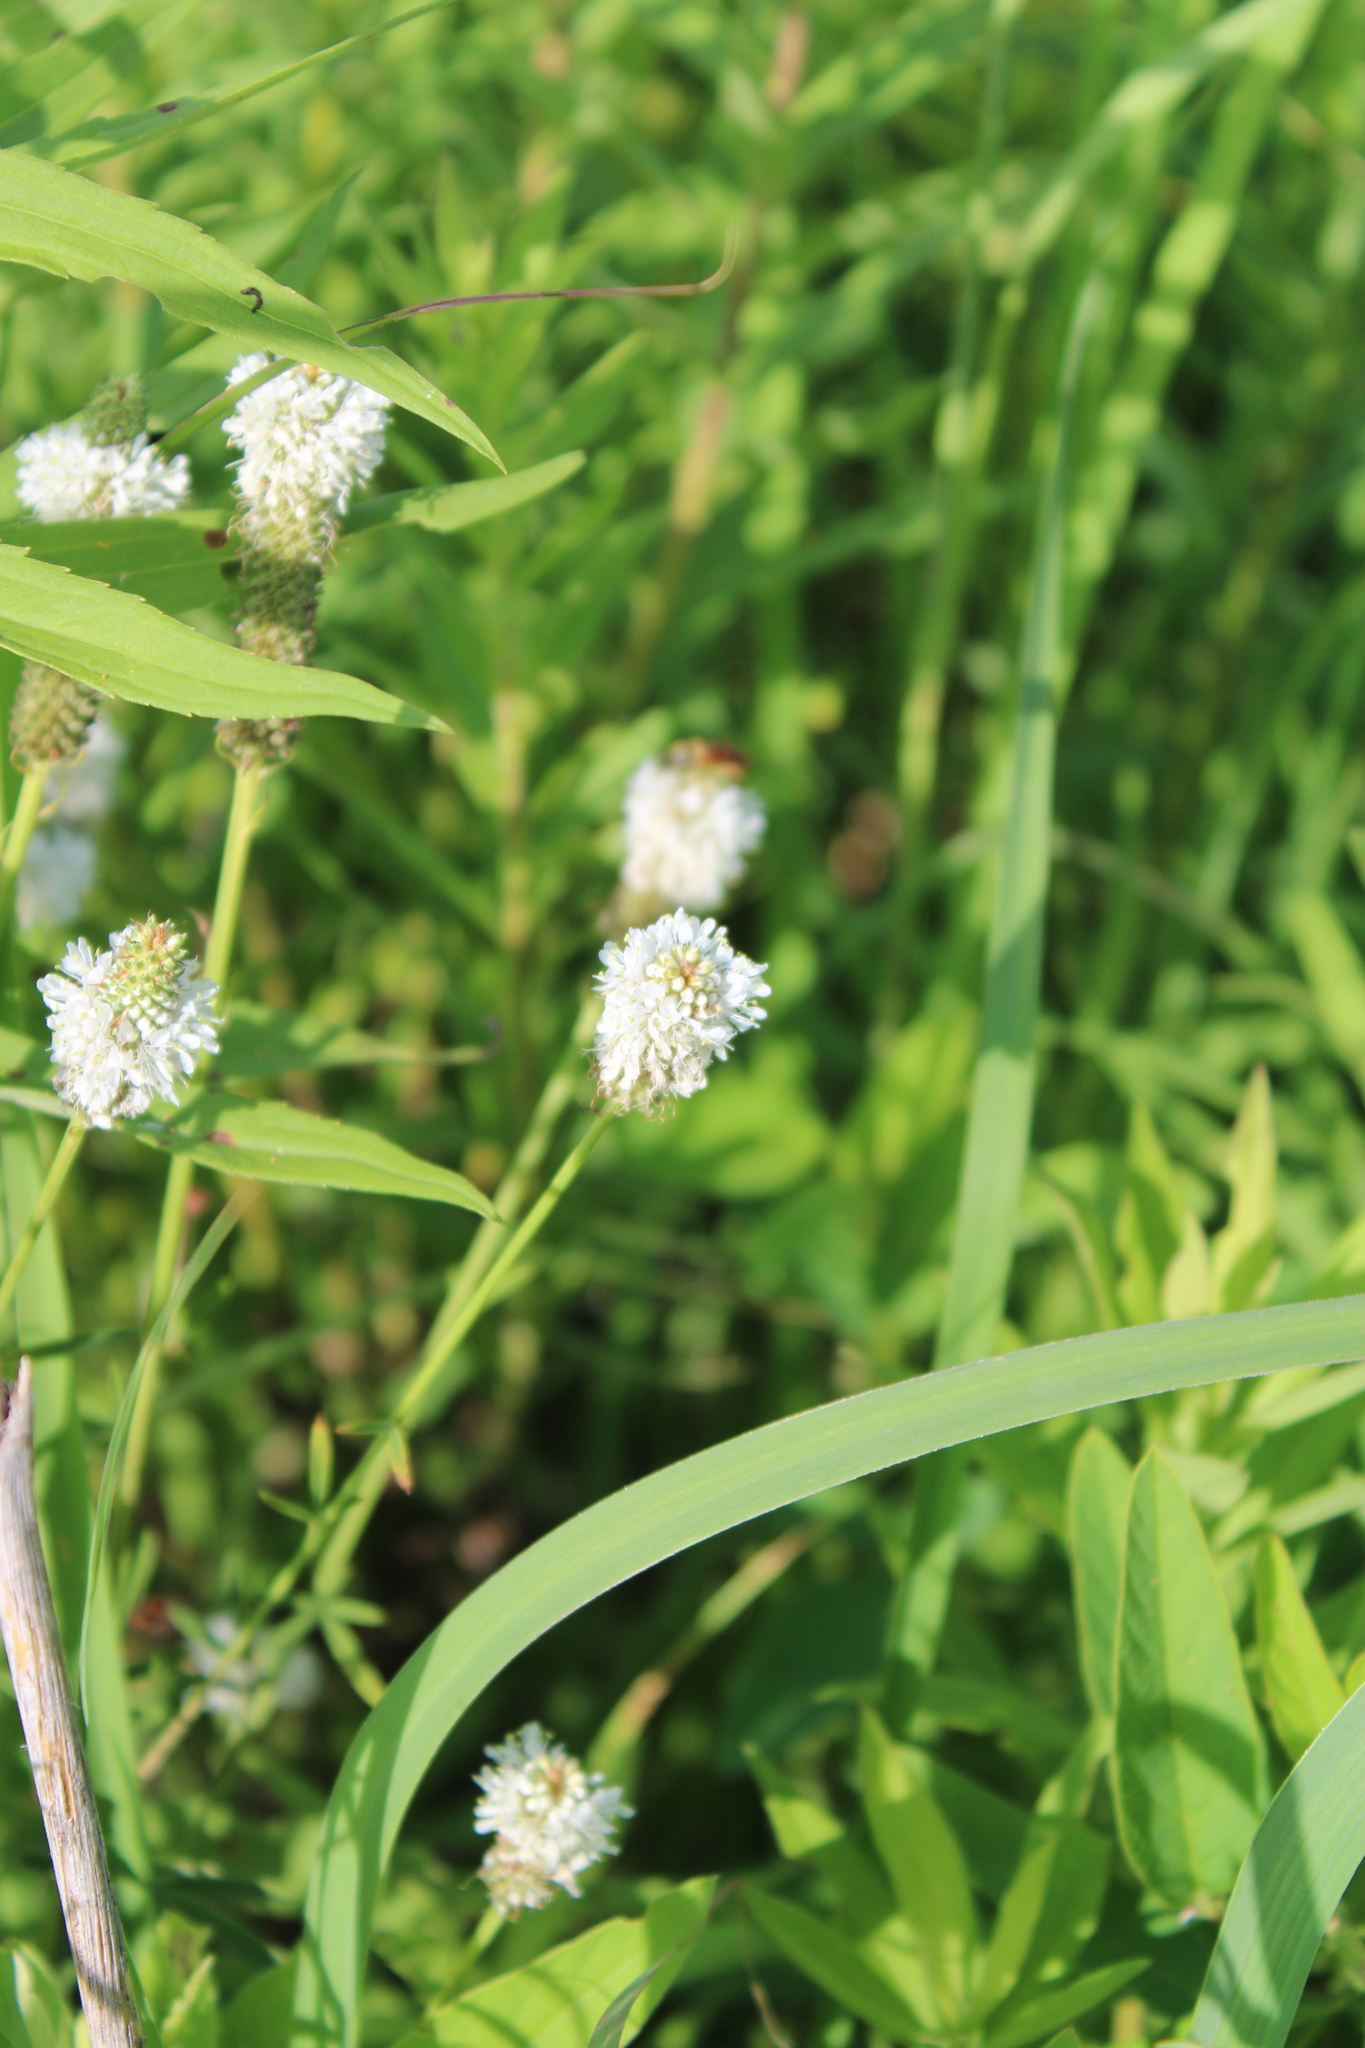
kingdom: Plantae
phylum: Tracheophyta
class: Magnoliopsida
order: Fabales
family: Fabaceae
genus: Dalea
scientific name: Dalea candida
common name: White prairie-clover
